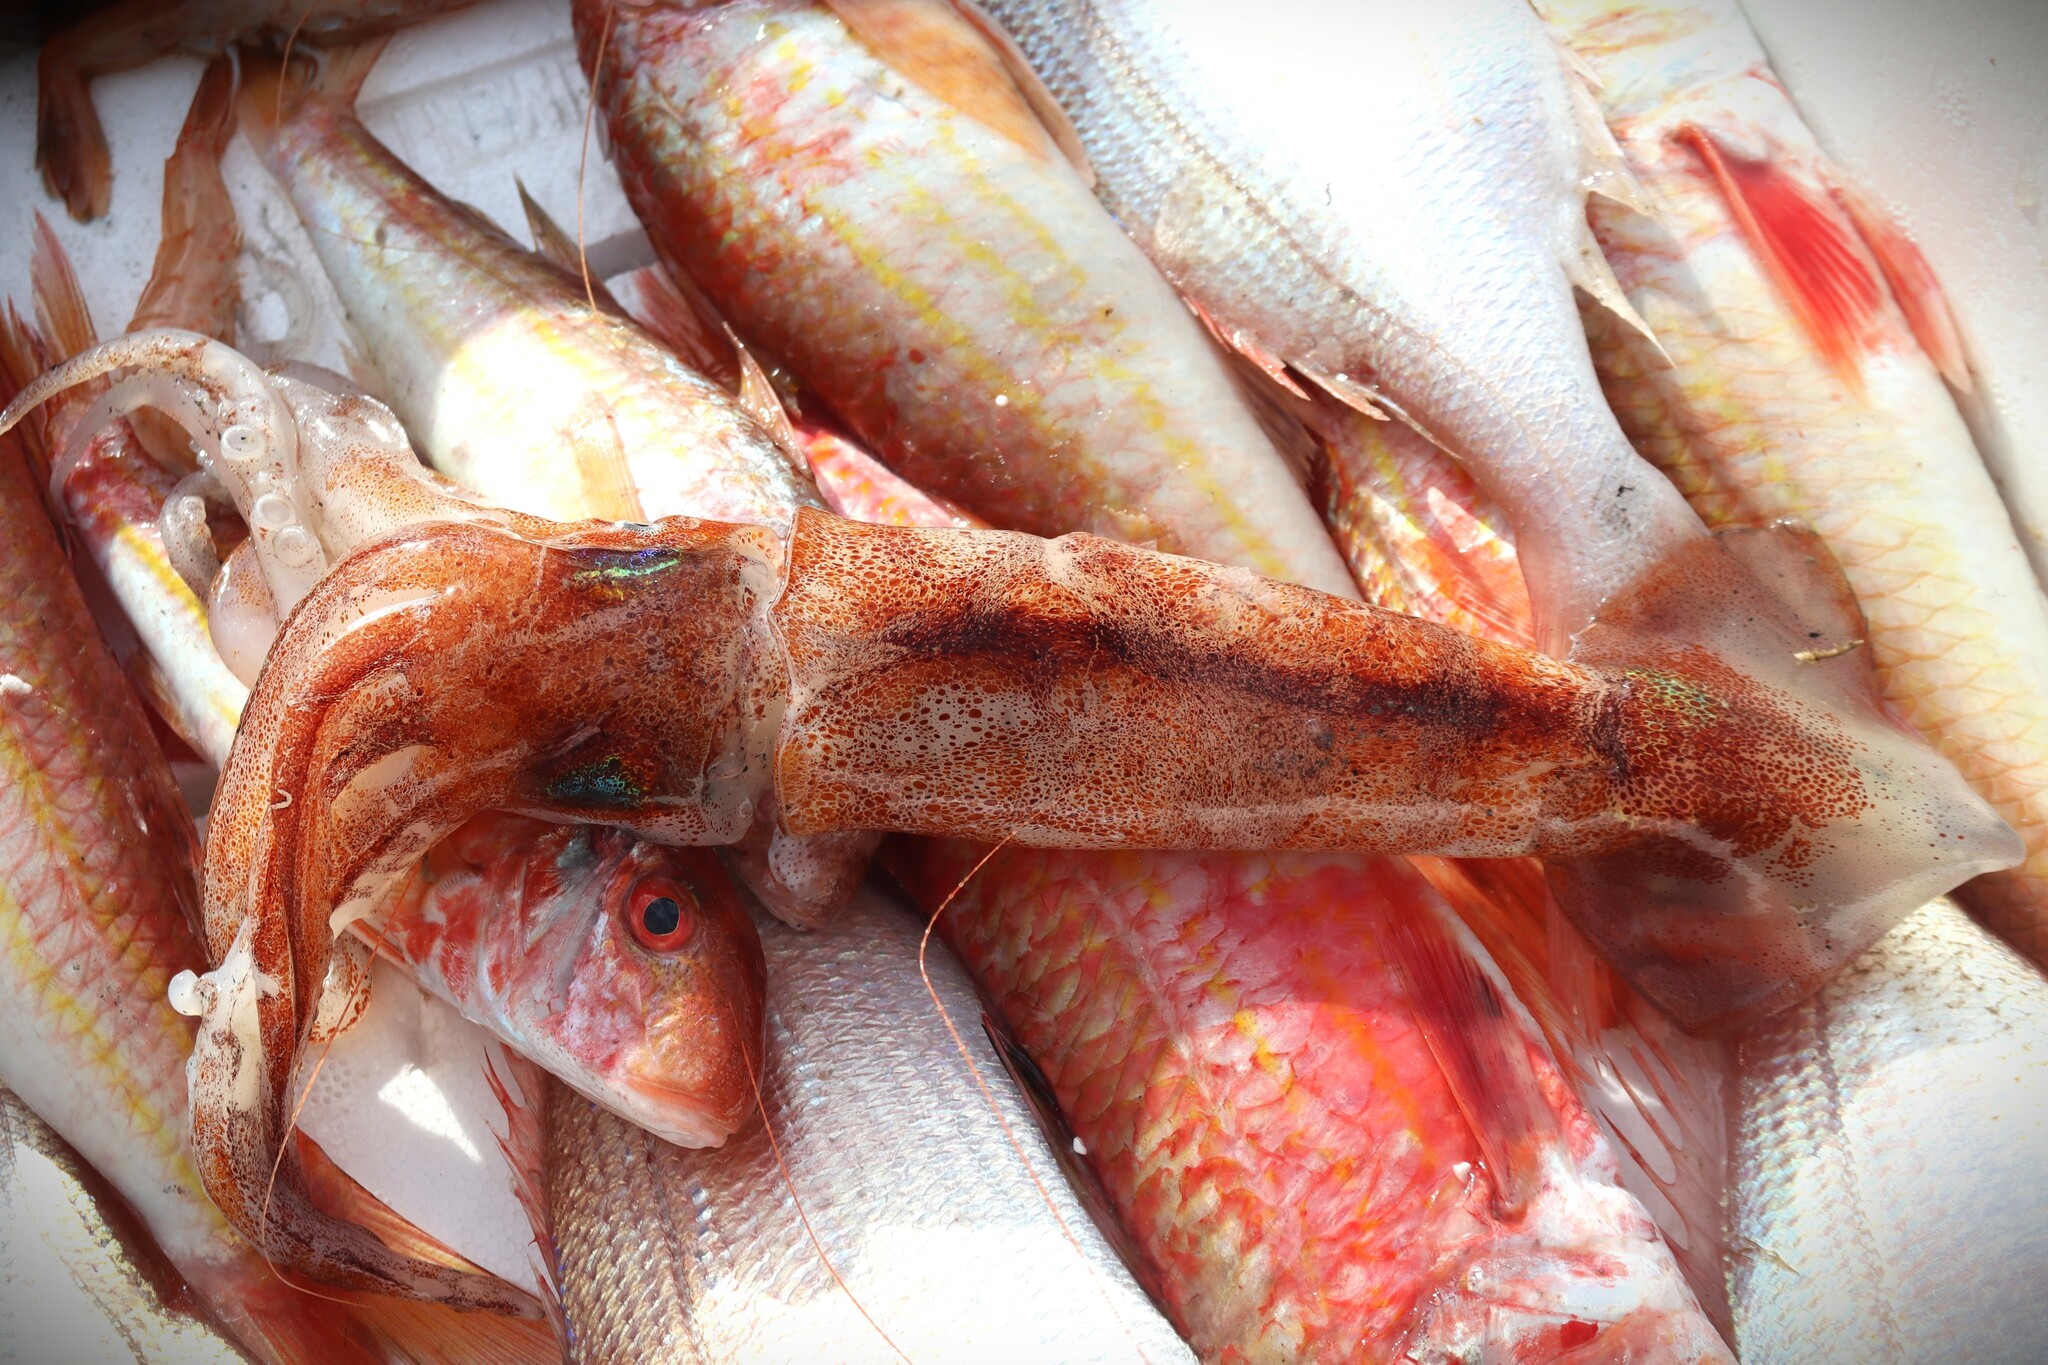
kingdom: Animalia
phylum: Mollusca
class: Cephalopoda
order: Myopsida
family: Loliginidae
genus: Loligo
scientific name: Loligo vulgaris
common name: European squid
